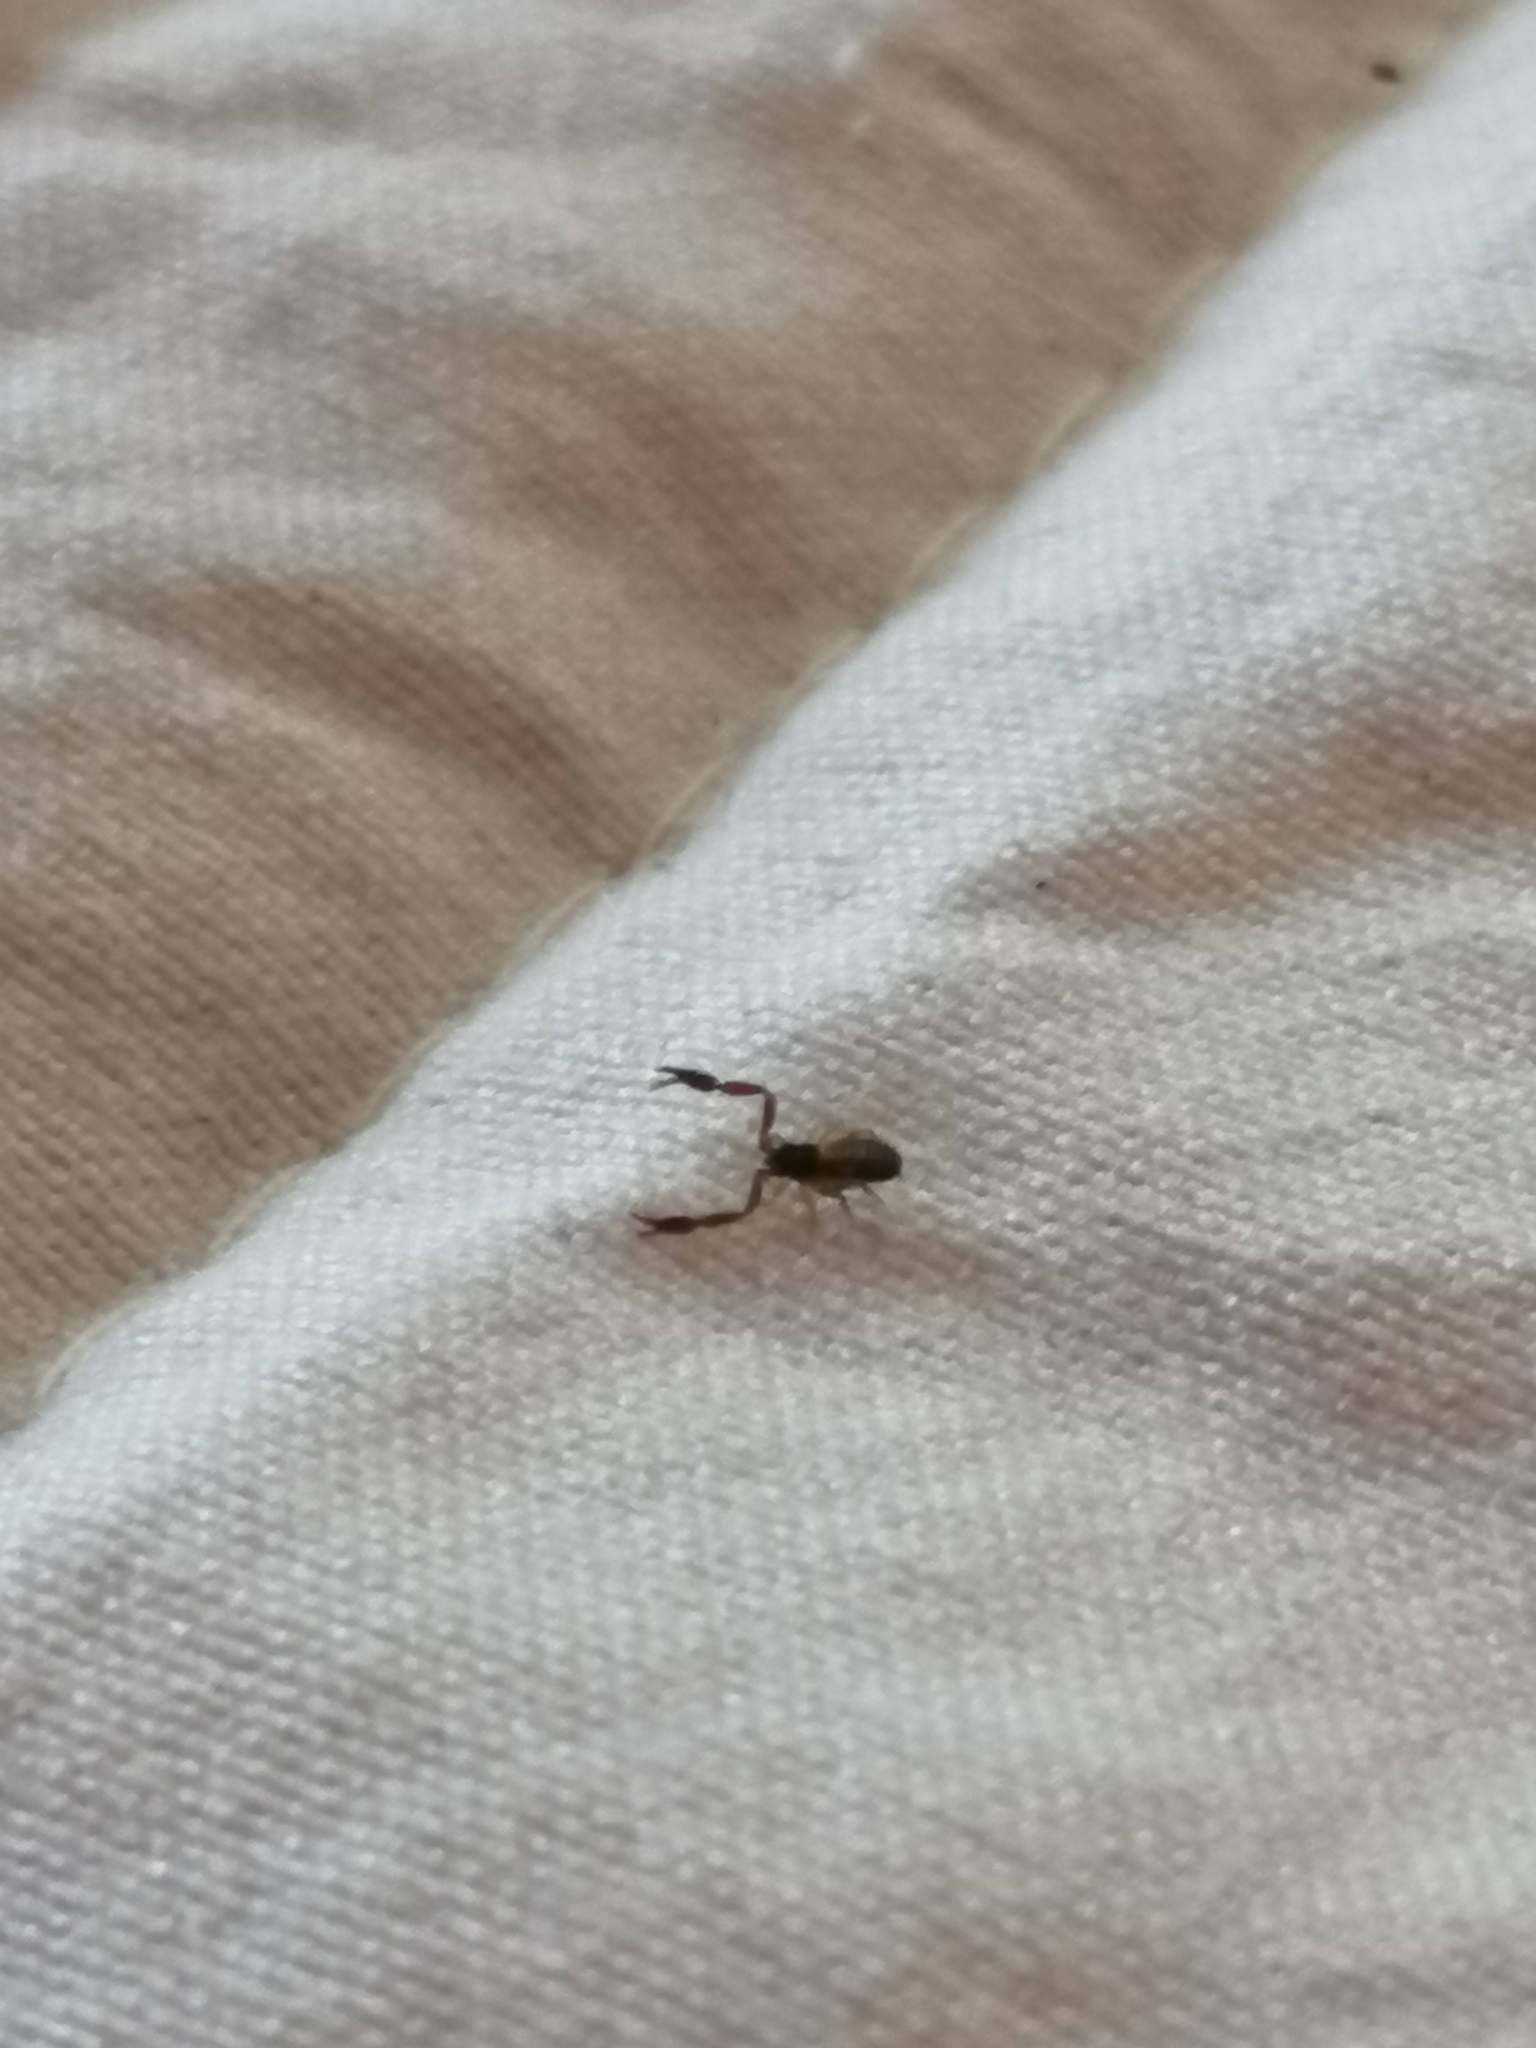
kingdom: Animalia
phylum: Arthropoda
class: Arachnida
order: Pseudoscorpiones
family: Cheliferidae
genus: Chelifer
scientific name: Chelifer cancroides
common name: House false-scorpion
